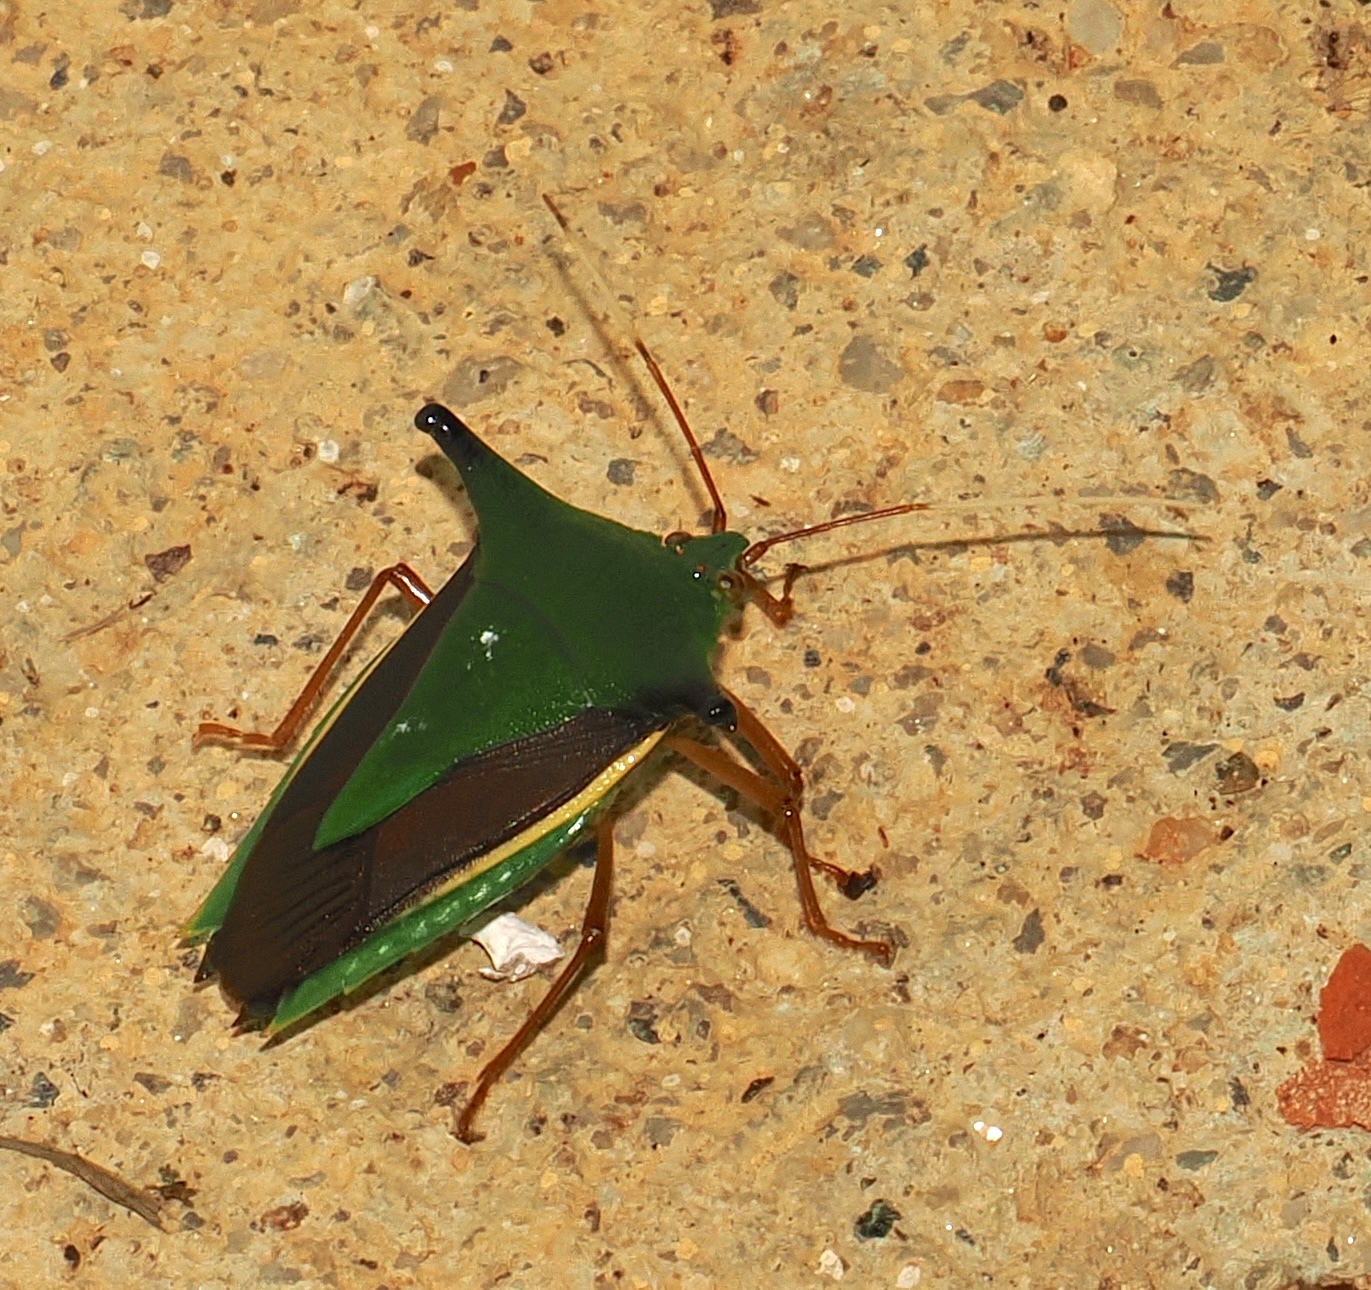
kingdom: Animalia
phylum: Arthropoda
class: Insecta
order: Hemiptera
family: Pentatomidae
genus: Edessa
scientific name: Edessa
